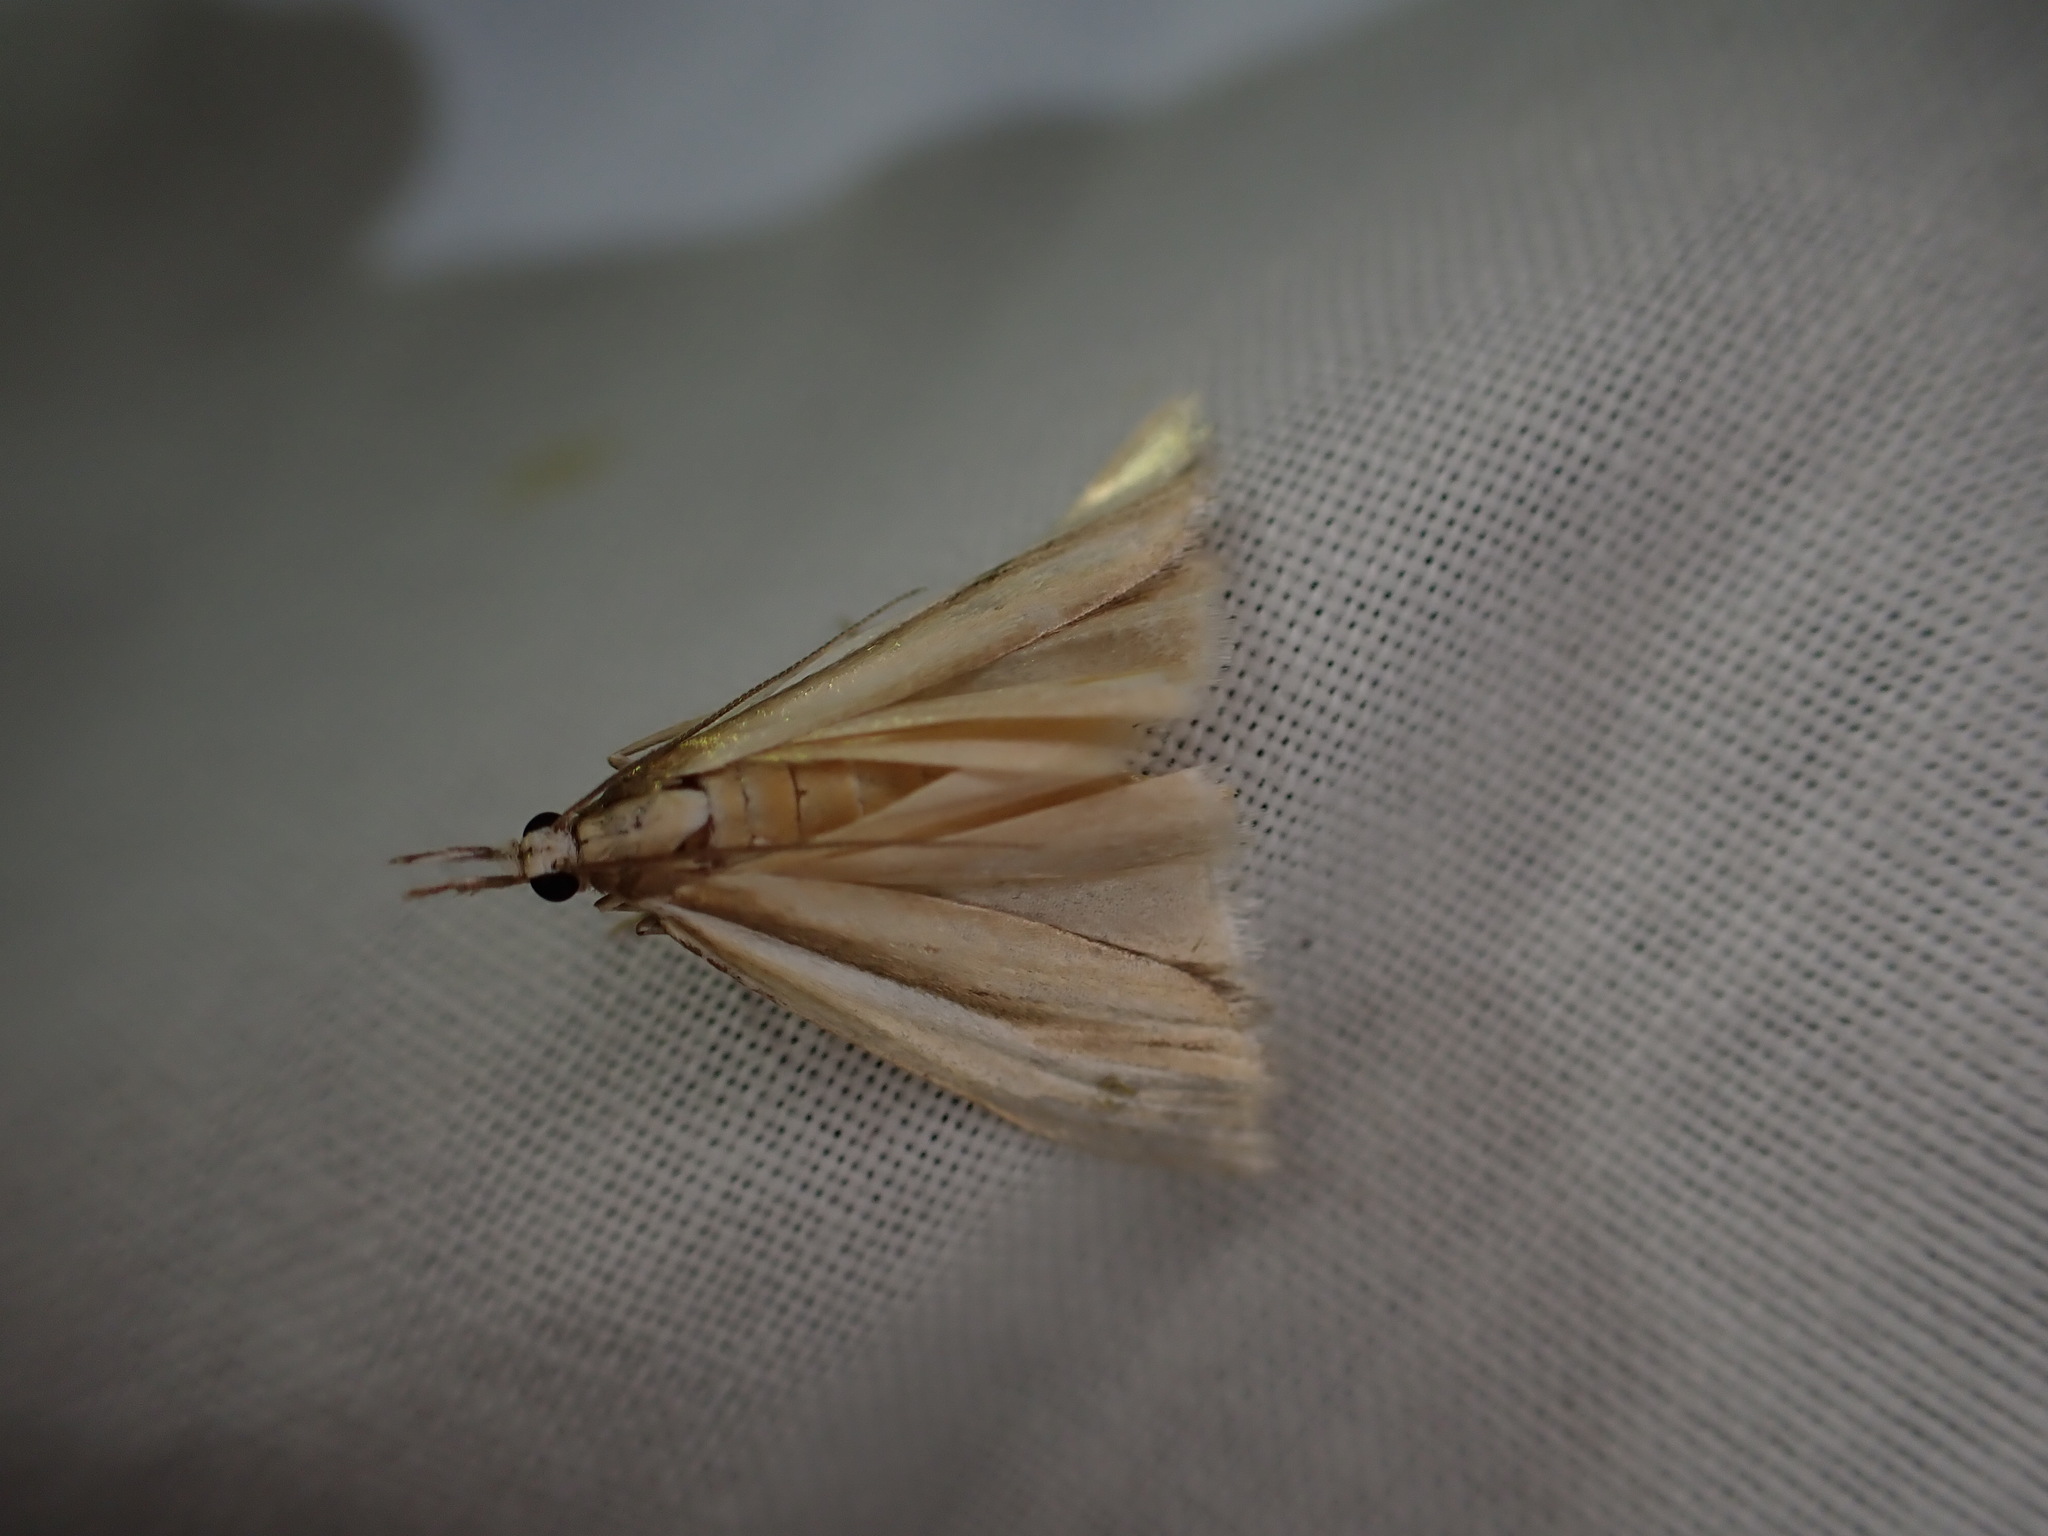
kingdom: Animalia
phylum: Arthropoda
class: Insecta
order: Lepidoptera
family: Crambidae
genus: Orocrambus
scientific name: Orocrambus ramosellus
